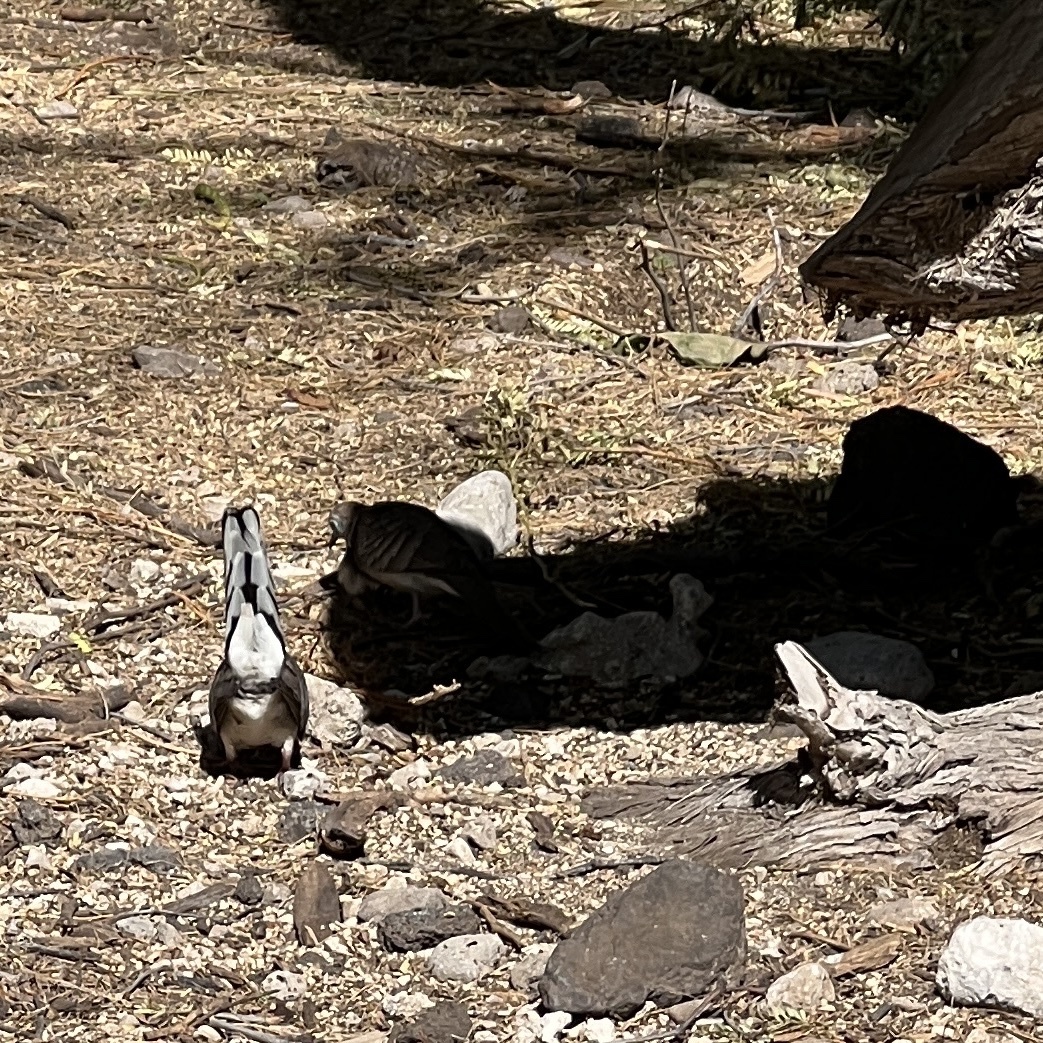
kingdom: Animalia
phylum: Chordata
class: Aves
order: Columbiformes
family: Columbidae
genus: Geopelia
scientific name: Geopelia striata
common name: Zebra dove
